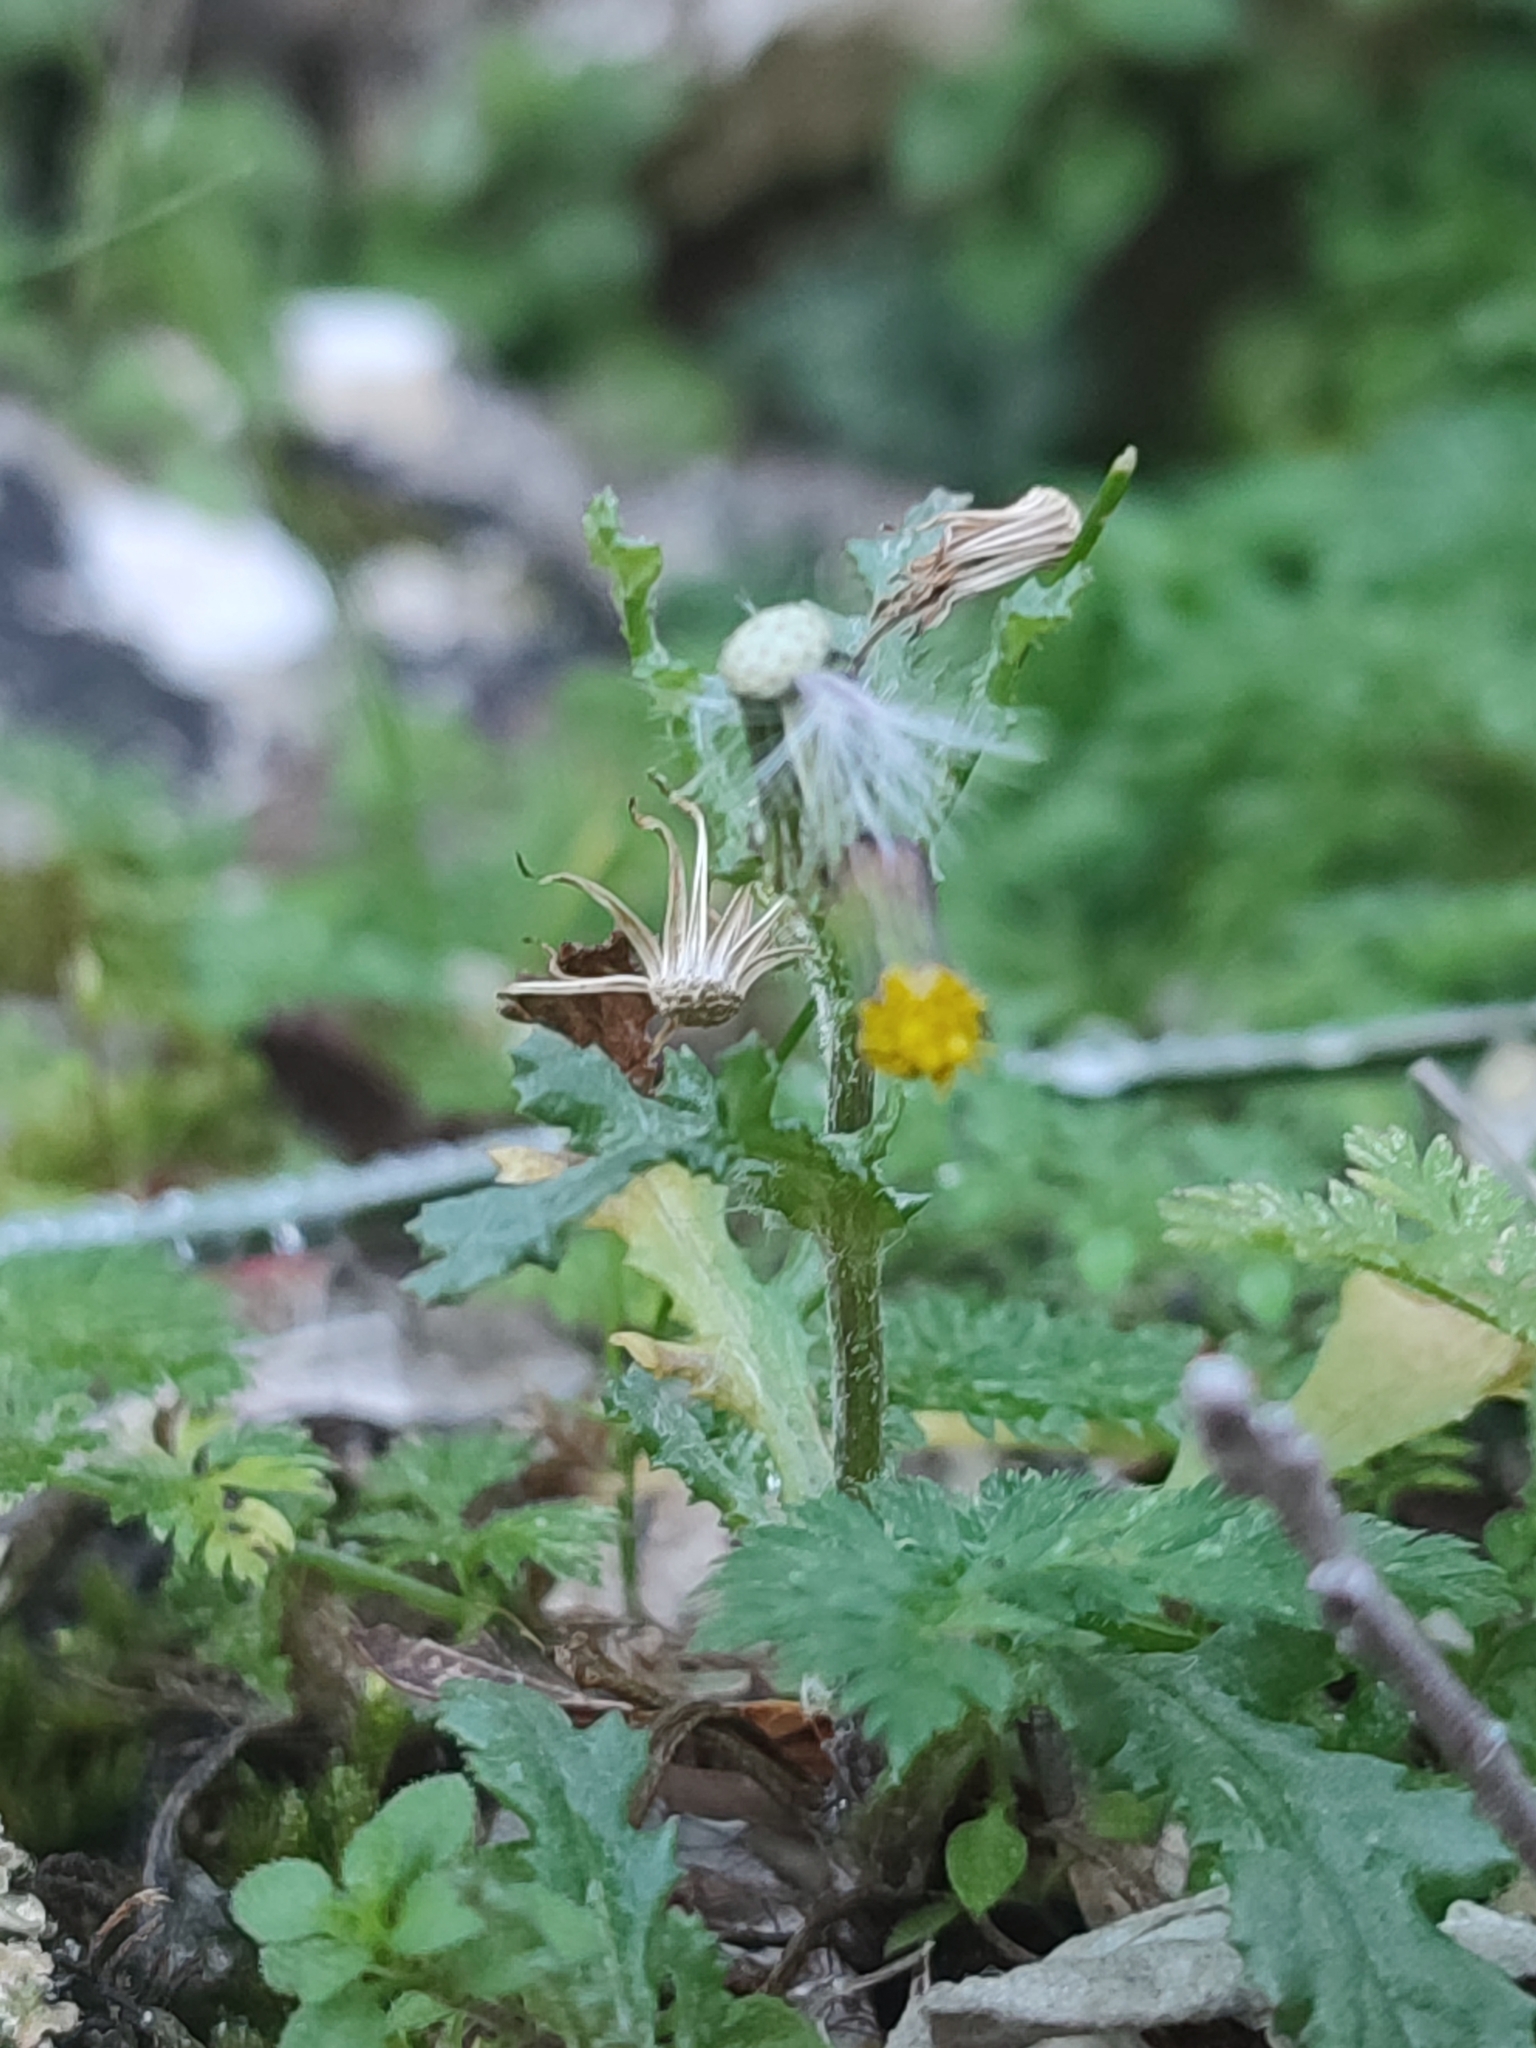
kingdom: Plantae
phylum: Tracheophyta
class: Magnoliopsida
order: Asterales
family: Asteraceae
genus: Senecio
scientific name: Senecio vulgaris
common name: Old-man-in-the-spring
